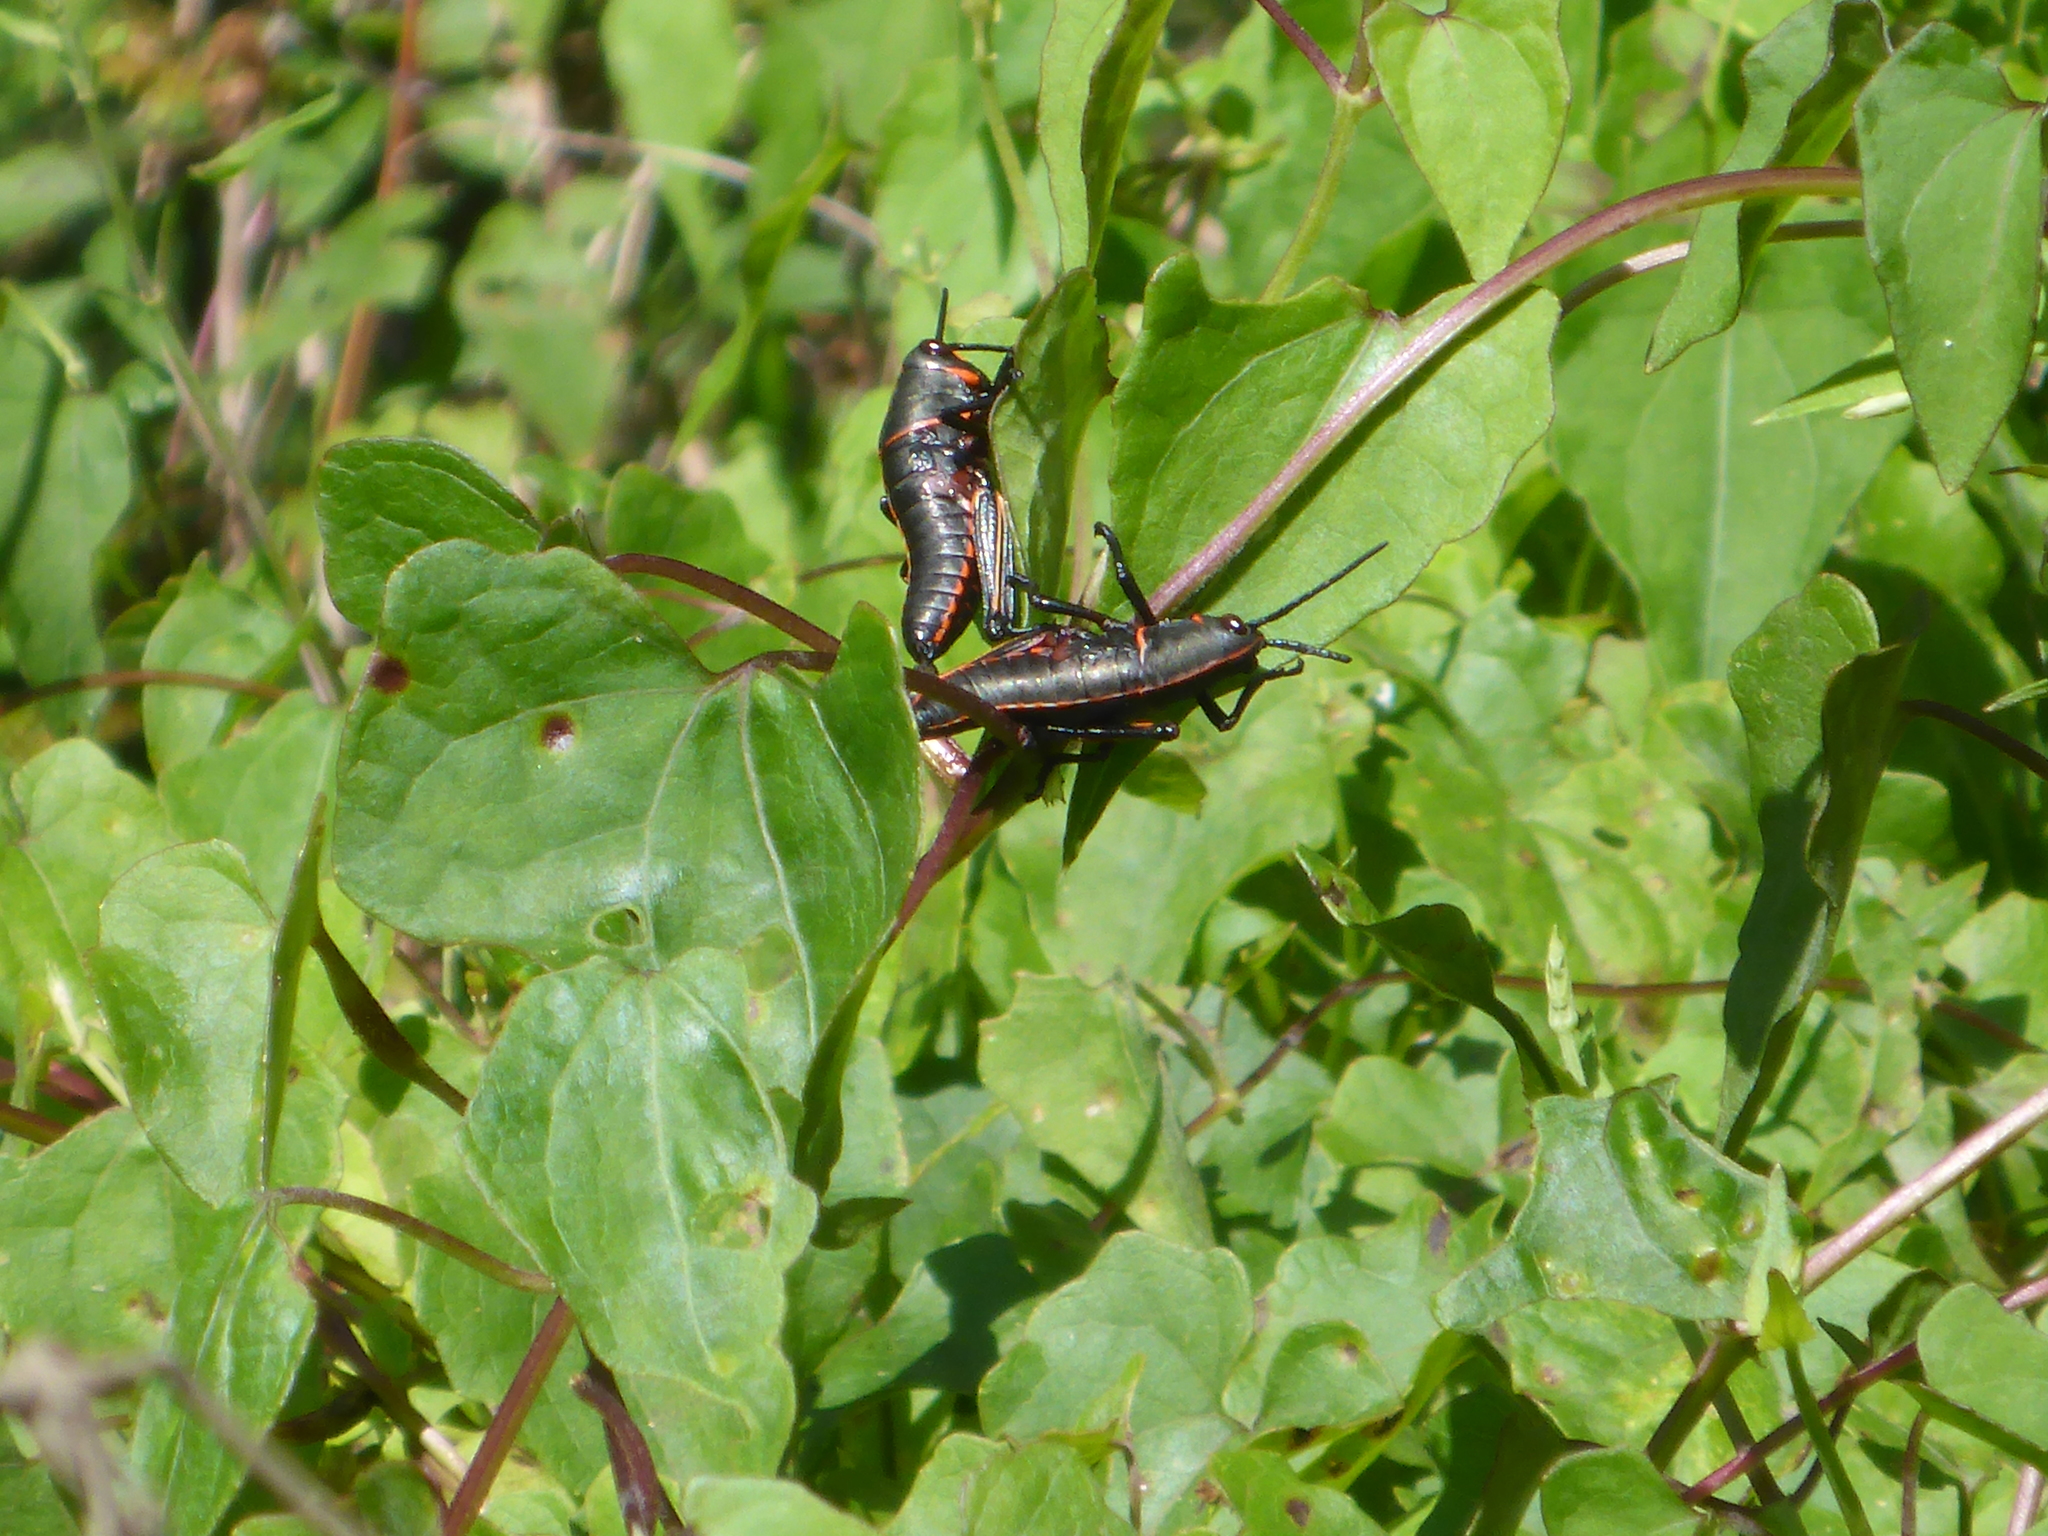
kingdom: Animalia
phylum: Arthropoda
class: Insecta
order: Orthoptera
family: Romaleidae
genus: Romalea
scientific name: Romalea microptera
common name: Eastern lubber grasshopper
